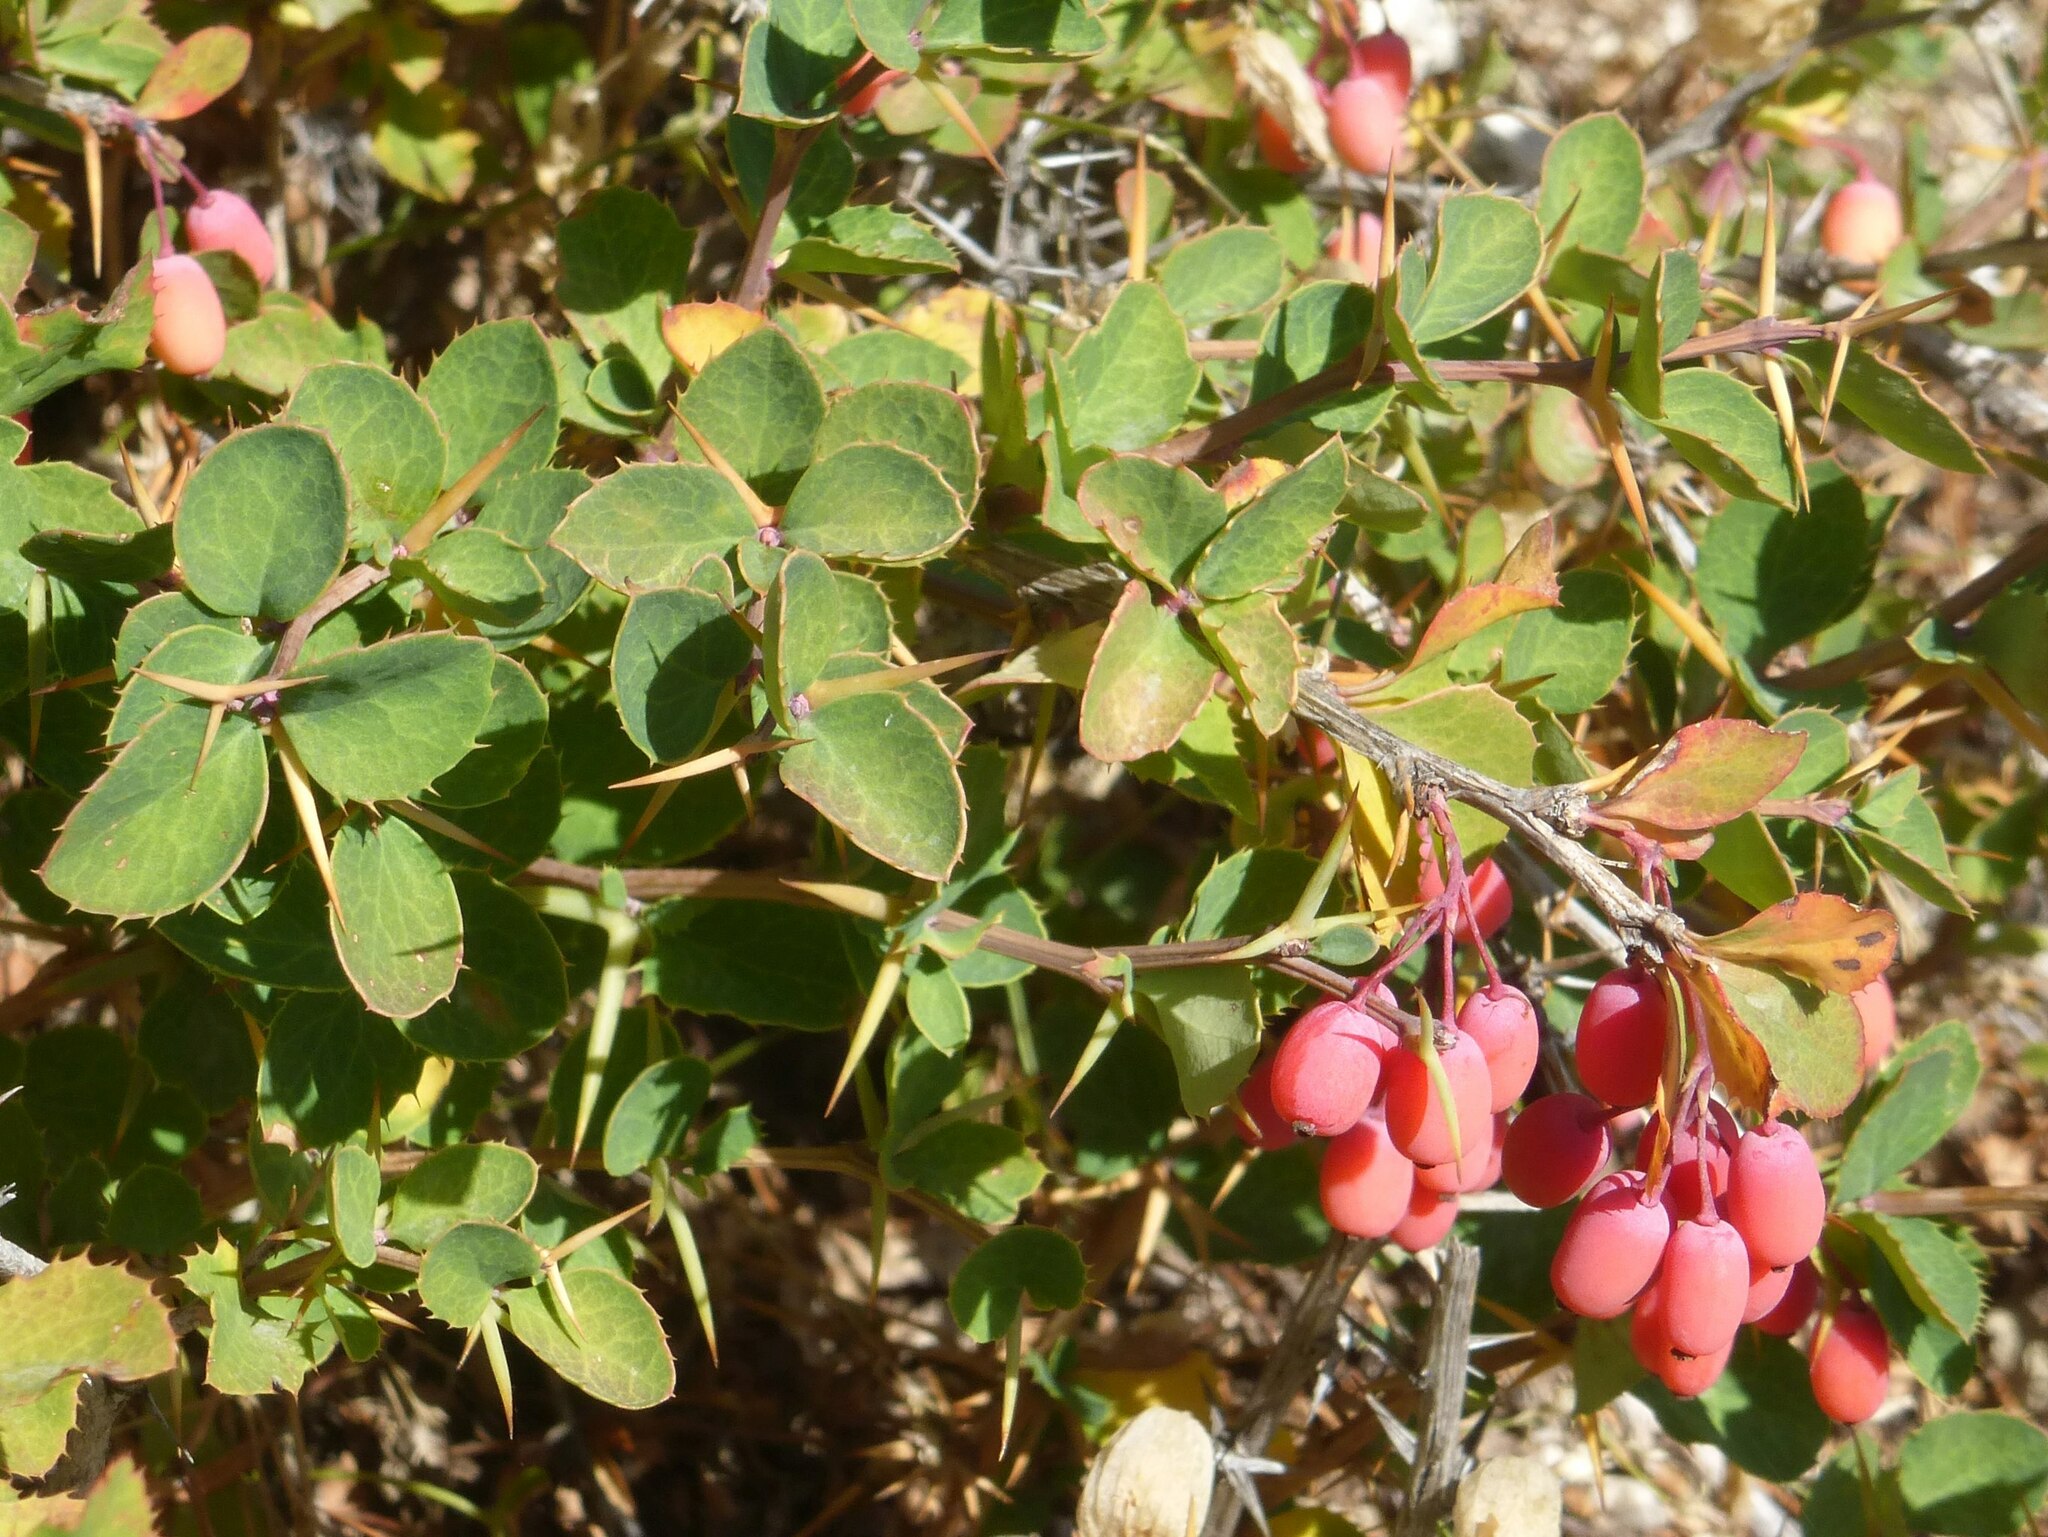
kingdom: Plantae
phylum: Tracheophyta
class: Magnoliopsida
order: Ranunculales
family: Berberidaceae
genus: Berberis
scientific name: Berberis aetnensis
